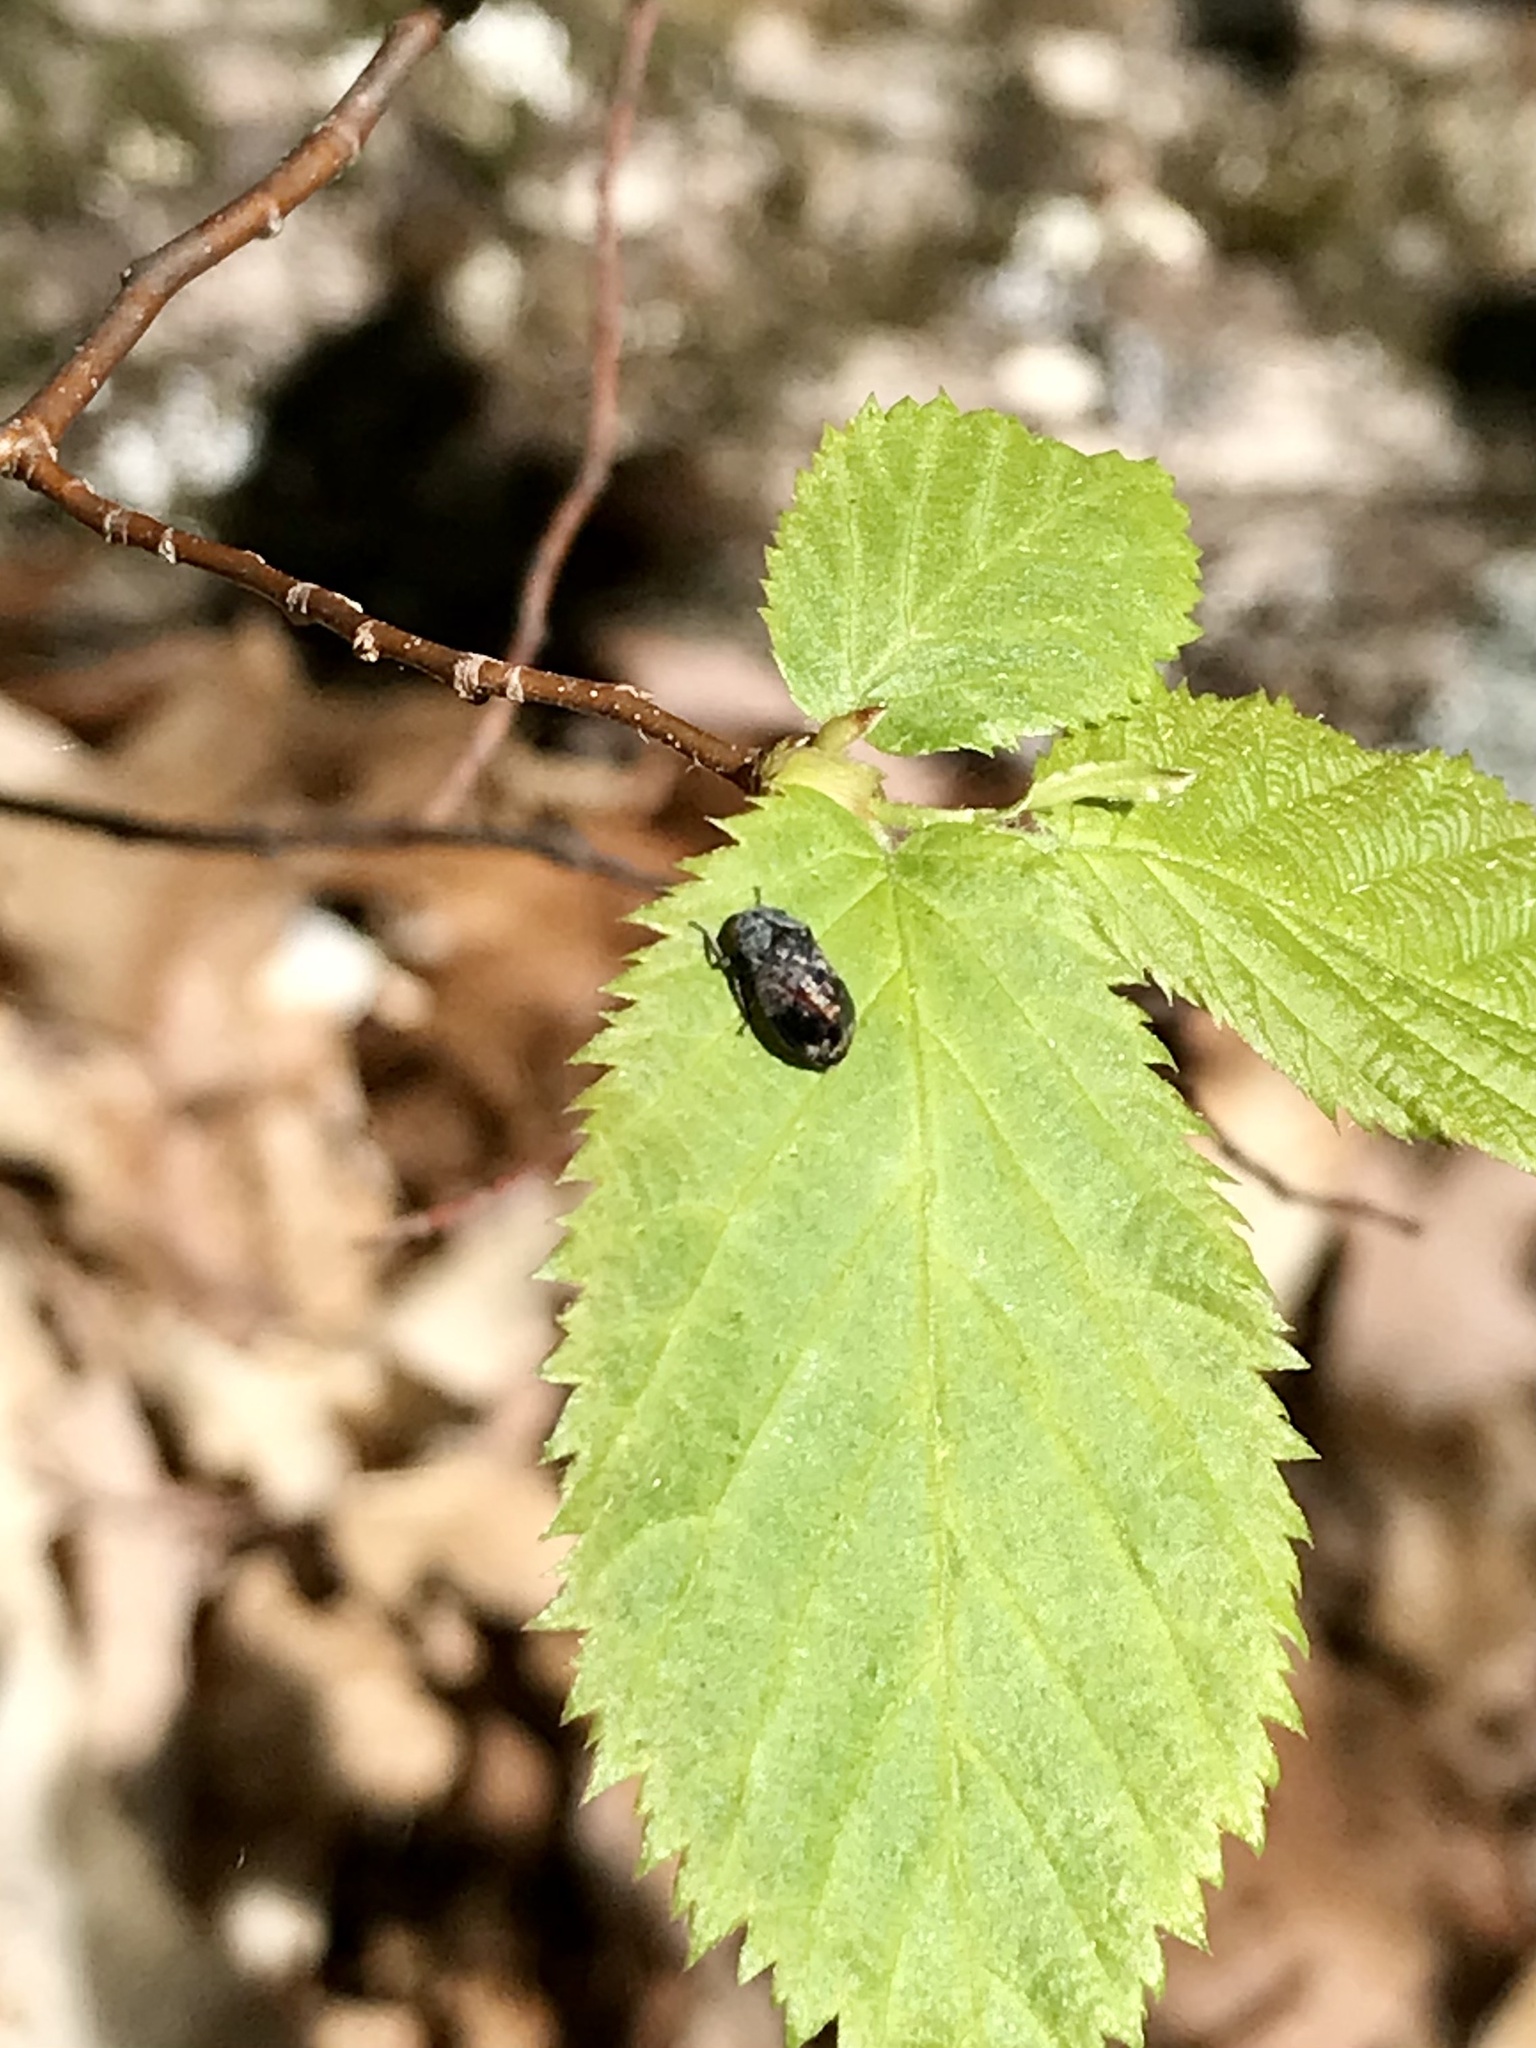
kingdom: Animalia
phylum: Arthropoda
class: Insecta
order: Hemiptera
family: Cicadellidae
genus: Penthimia
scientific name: Penthimia americana
